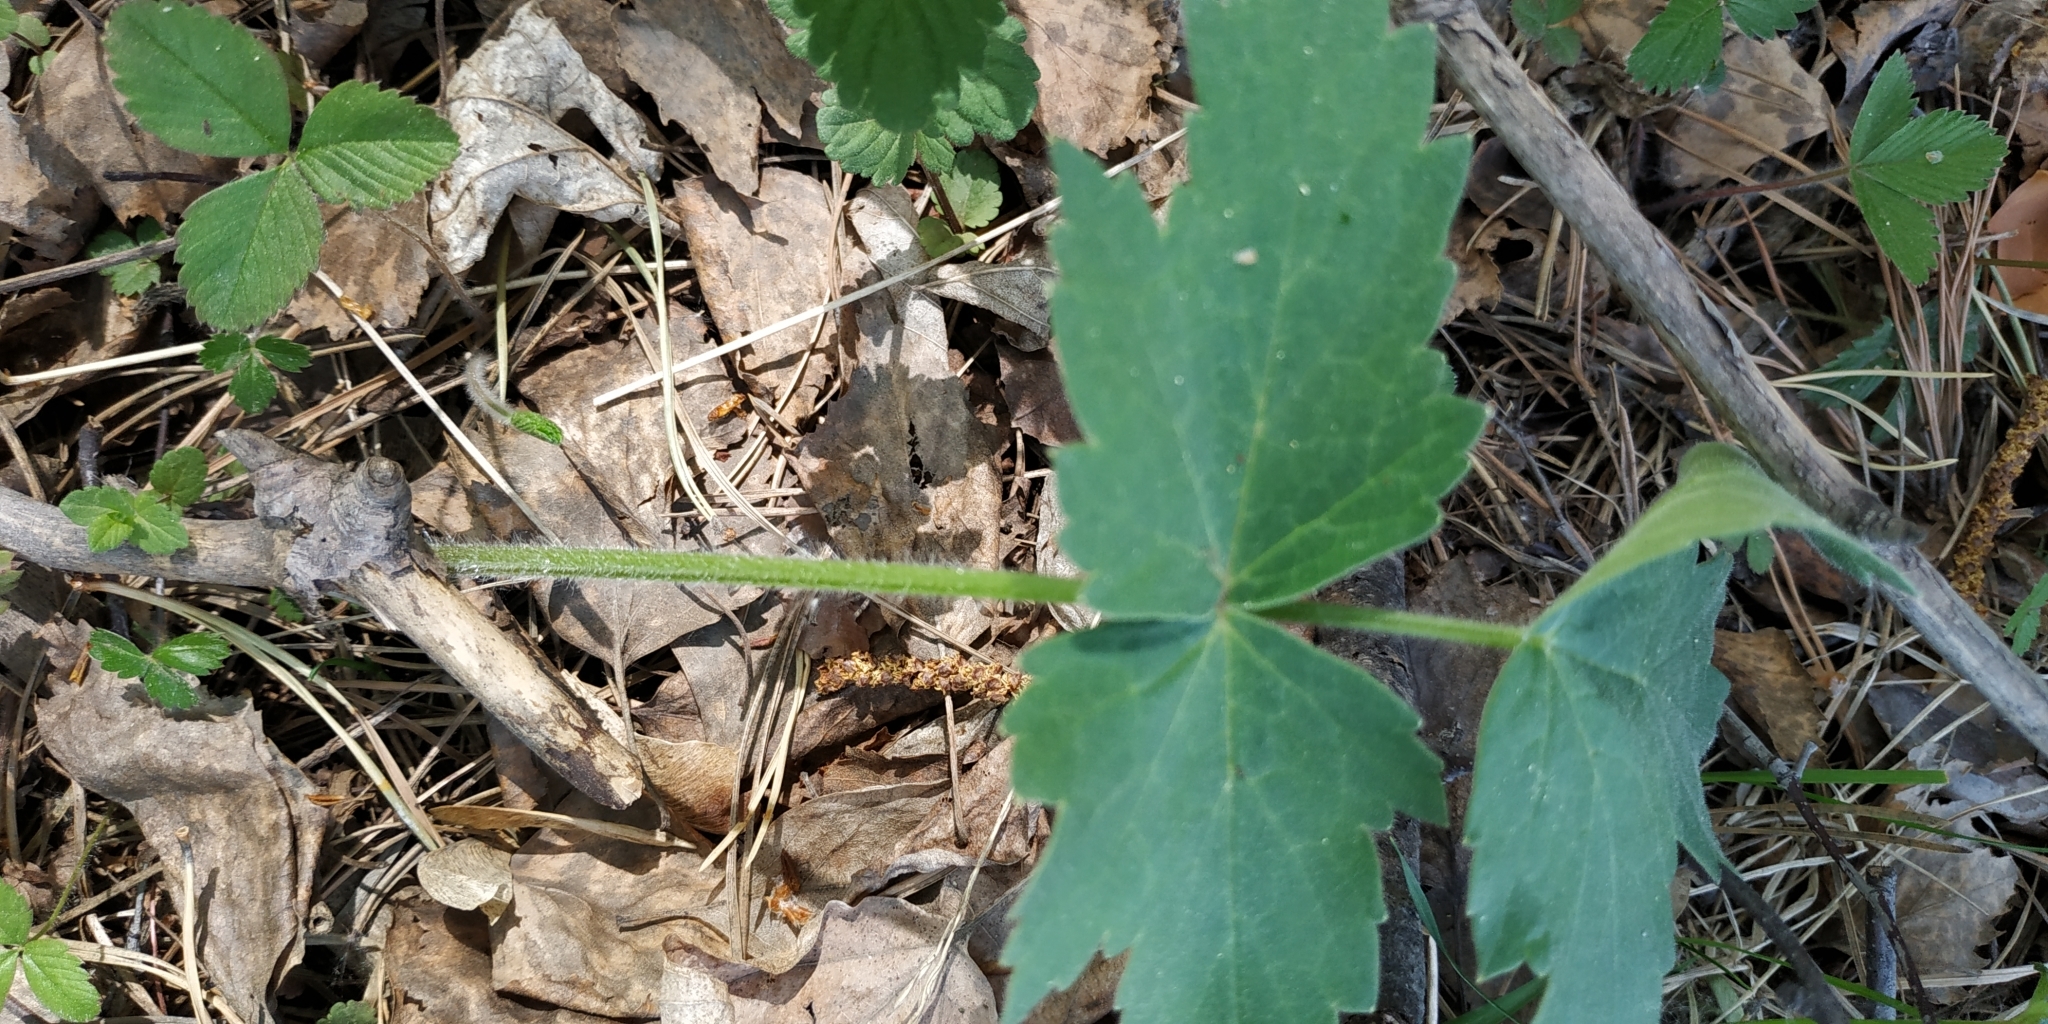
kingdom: Plantae
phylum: Tracheophyta
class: Magnoliopsida
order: Apiales
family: Apiaceae
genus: Heracleum
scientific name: Heracleum sphondylium
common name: Hogweed
